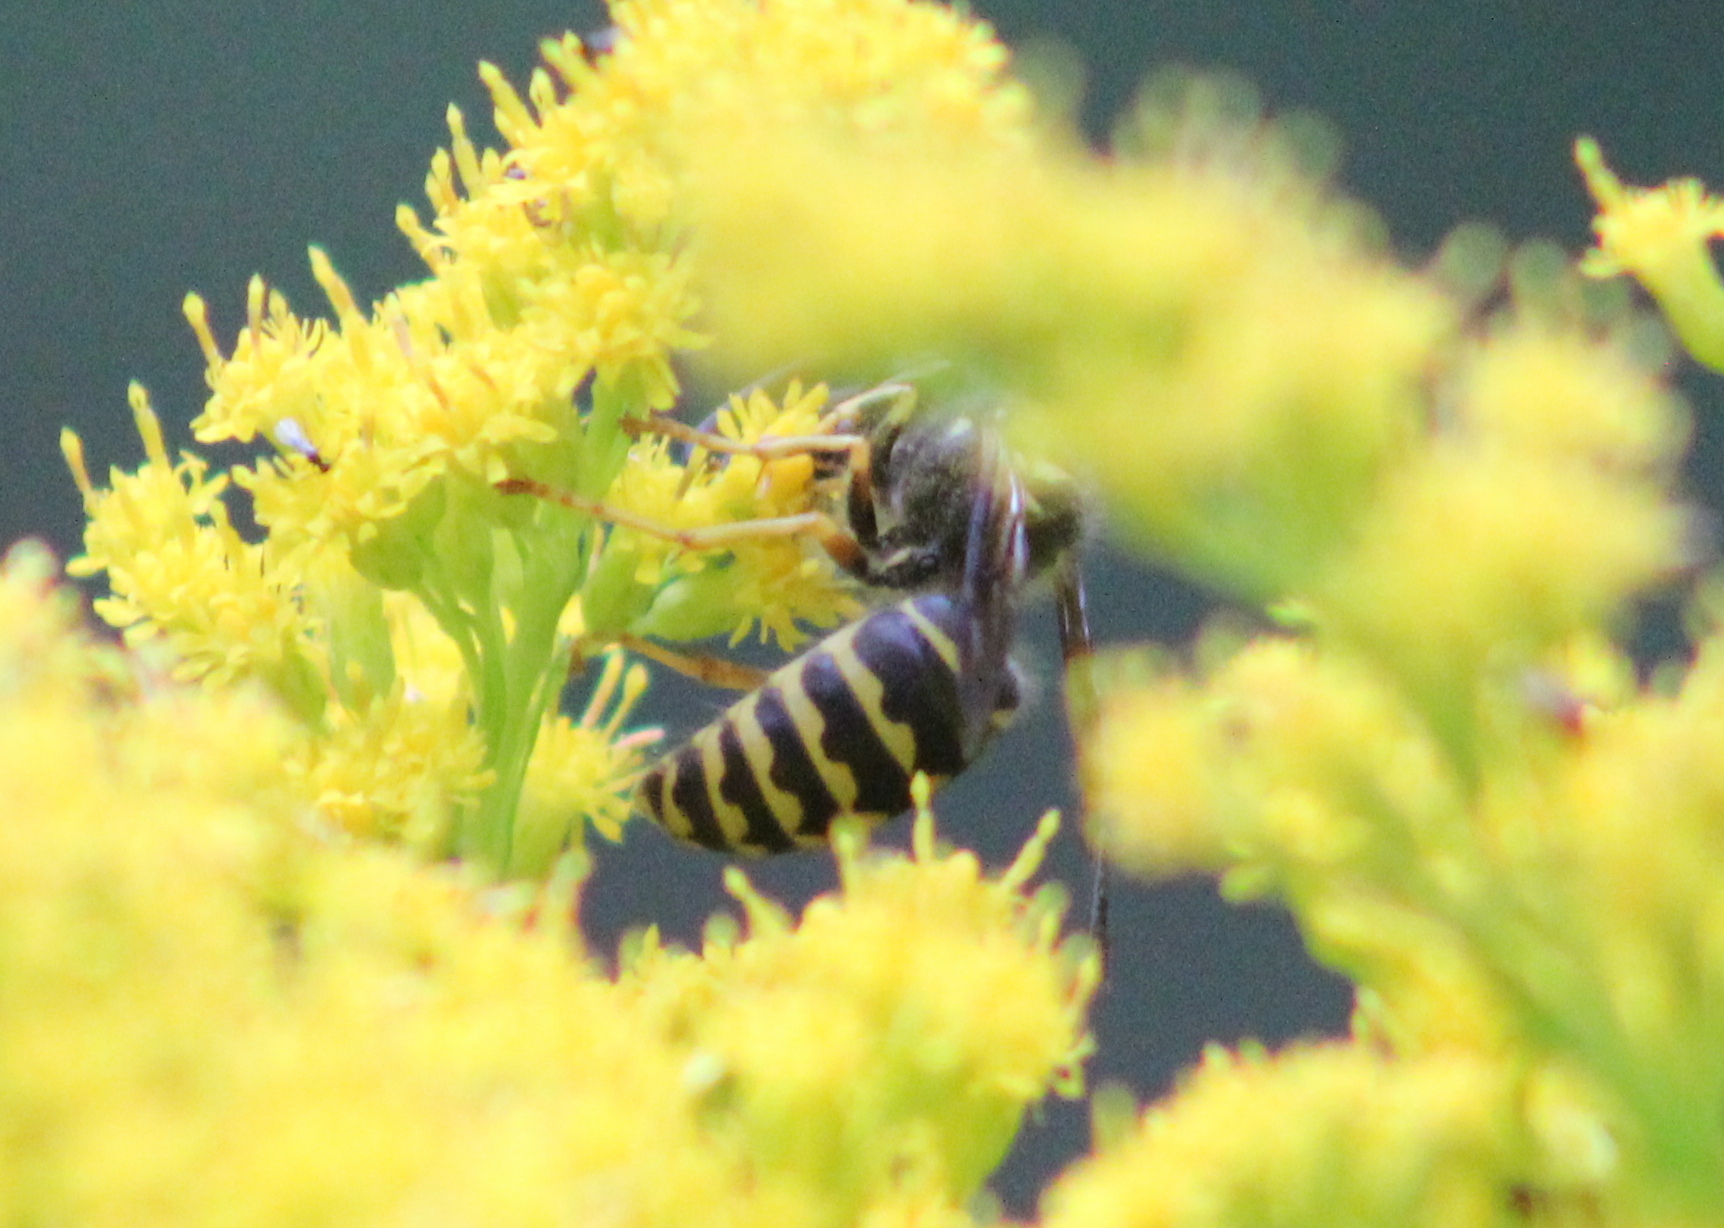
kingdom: Animalia
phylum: Arthropoda
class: Insecta
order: Hymenoptera
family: Vespidae
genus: Dolichovespula
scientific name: Dolichovespula arenaria
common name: Aerial yellowjacket
